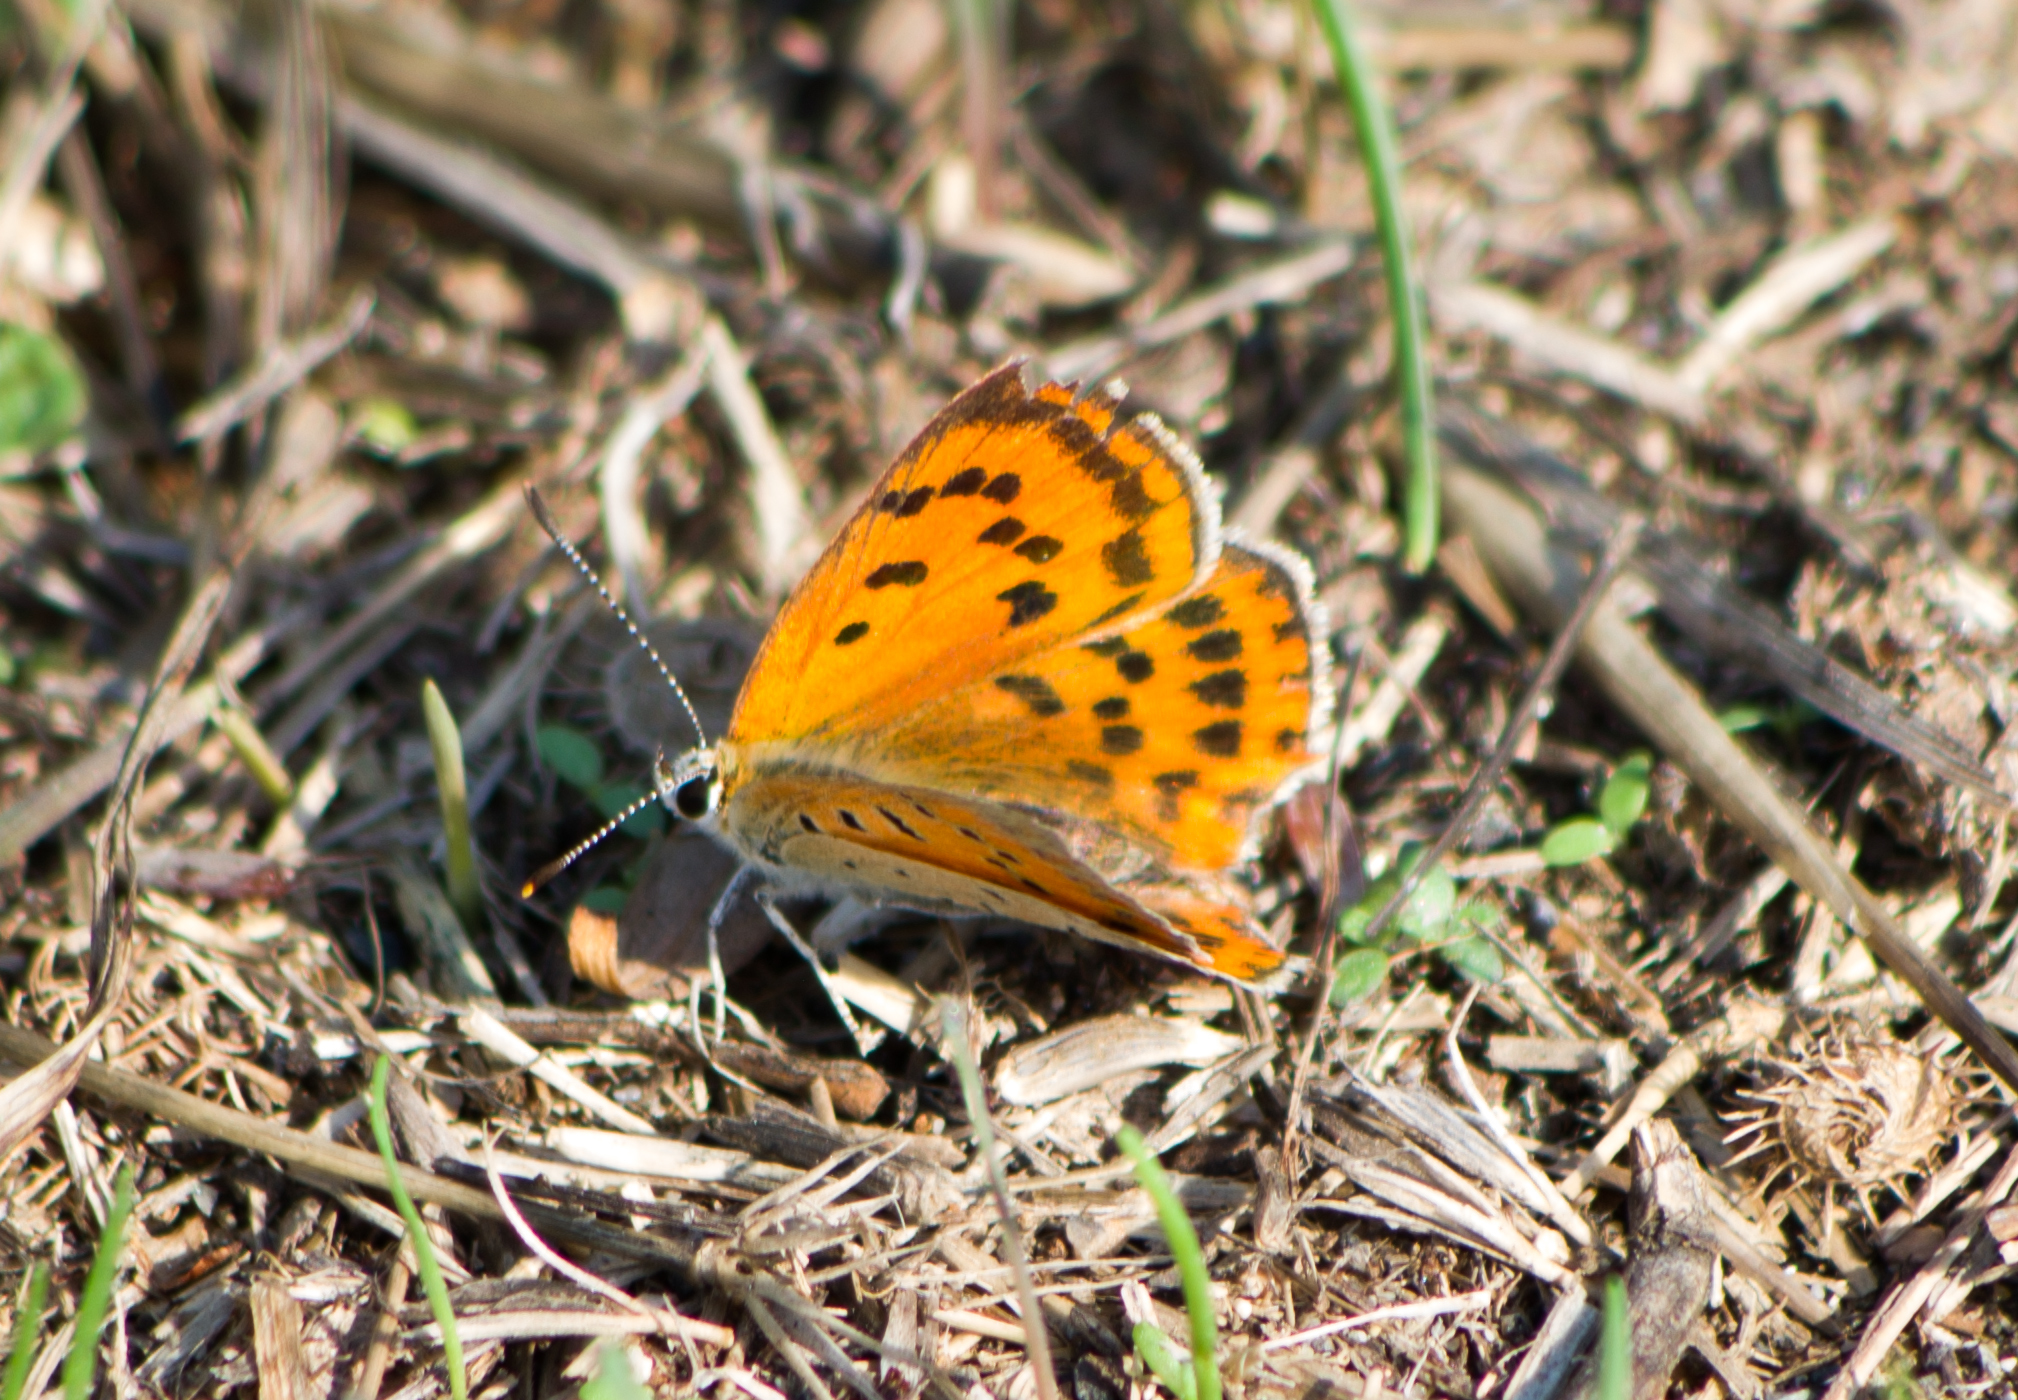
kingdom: Animalia
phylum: Arthropoda
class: Insecta
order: Lepidoptera
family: Lycaenidae
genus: Polyommatus
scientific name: Polyommatus ottomanus
